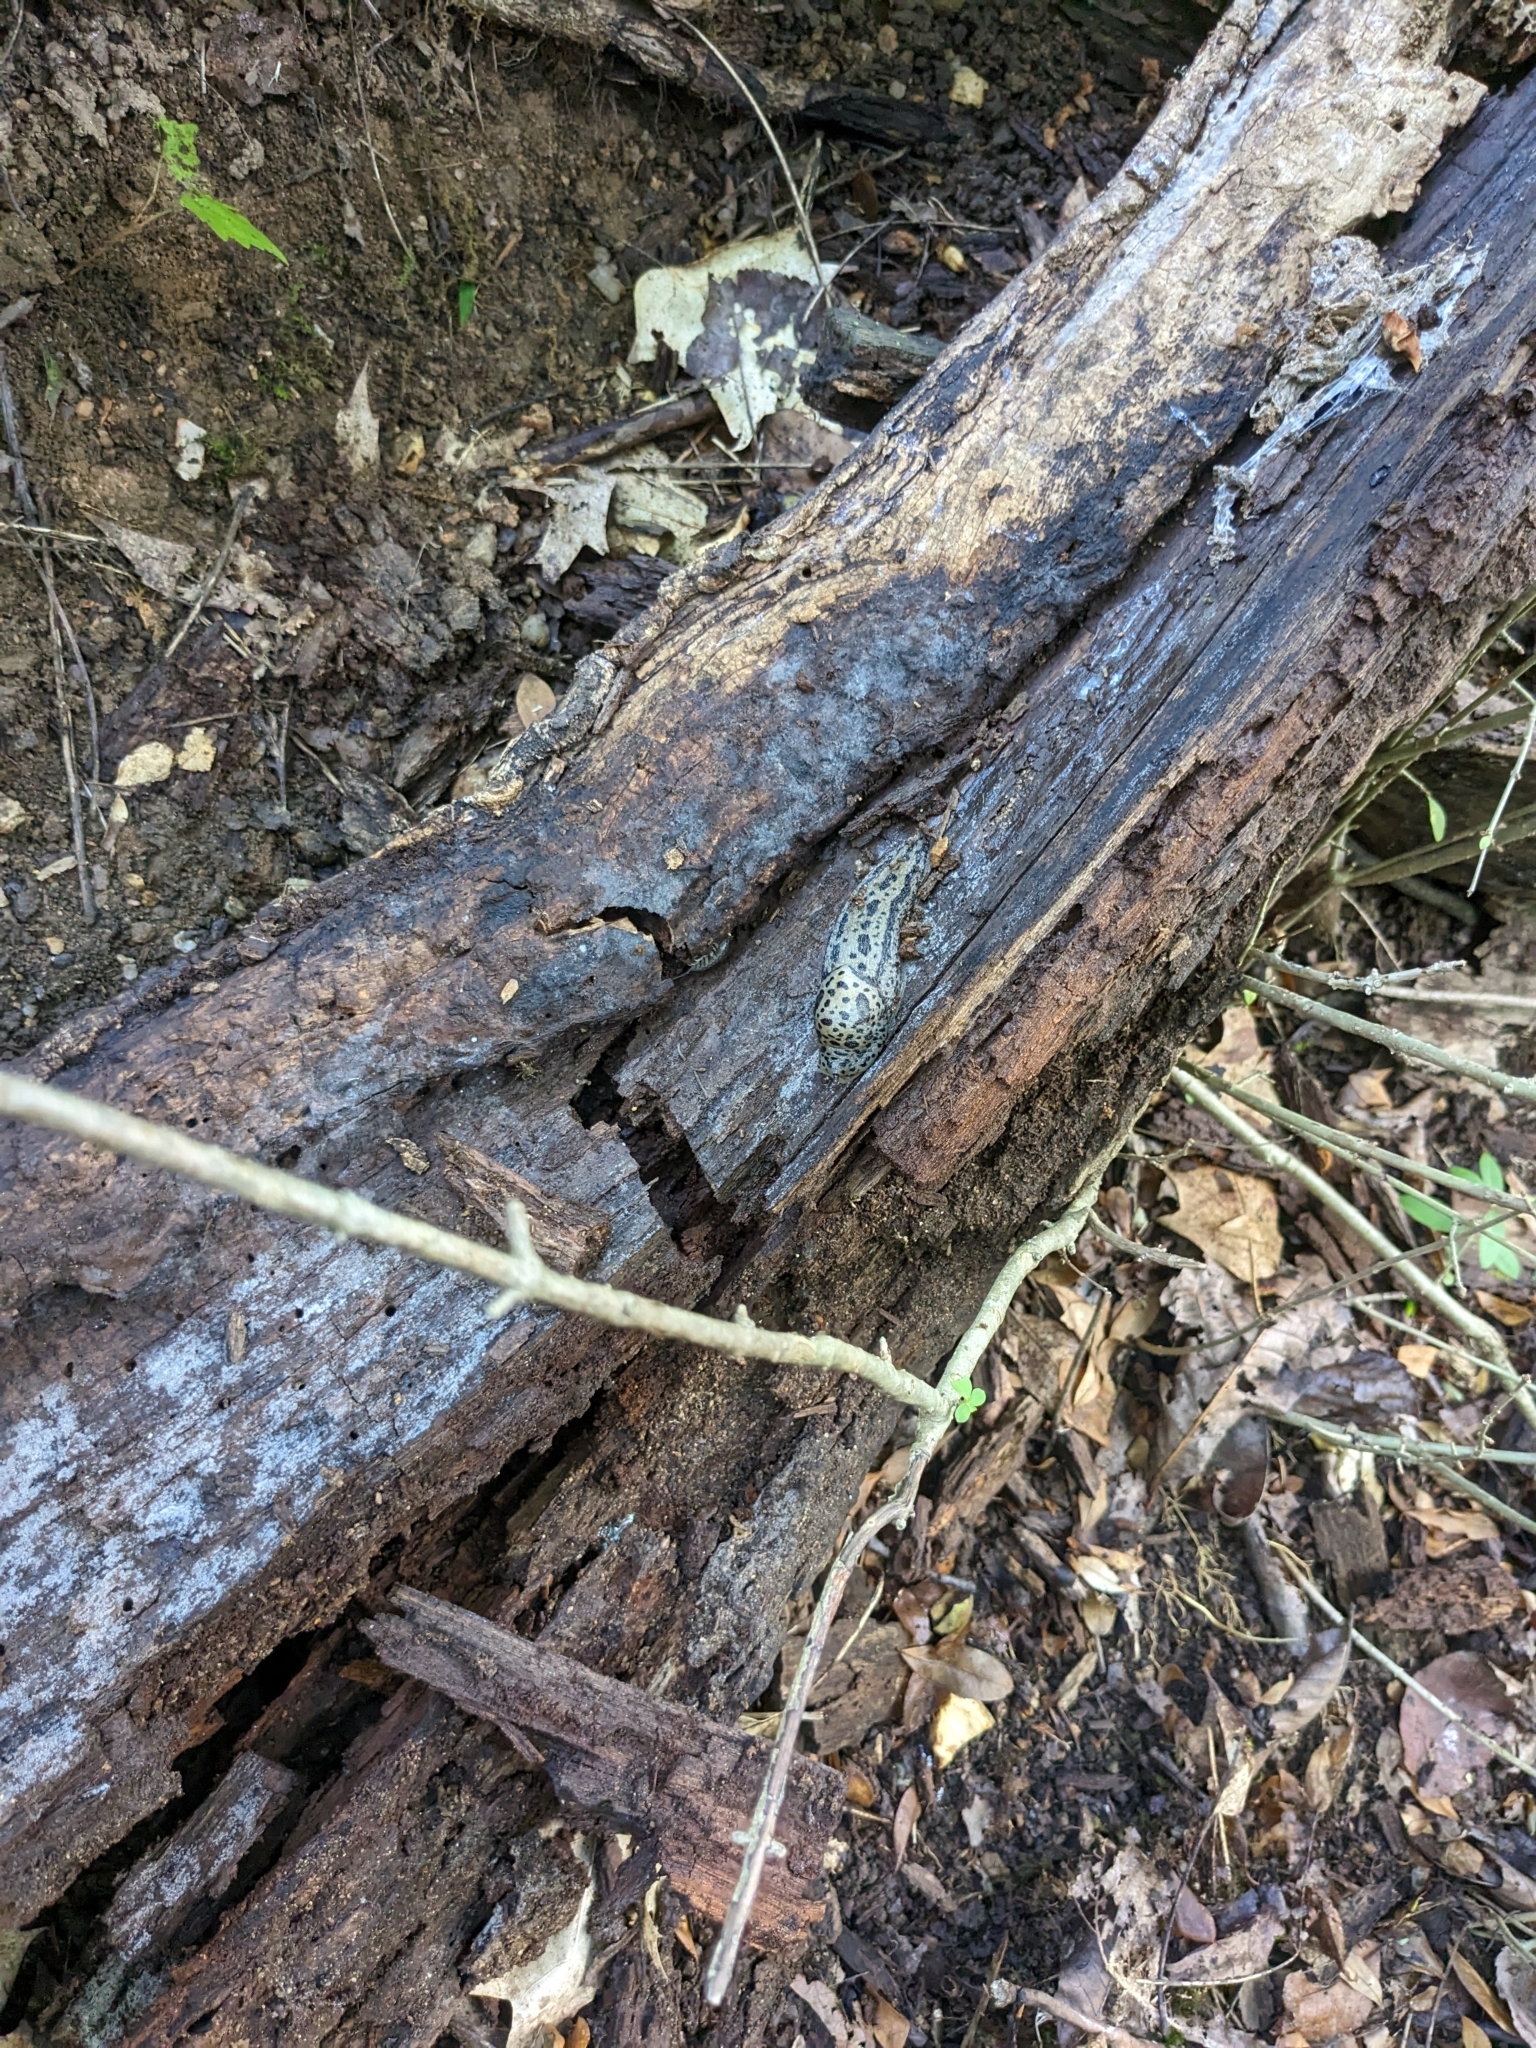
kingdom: Animalia
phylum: Mollusca
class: Gastropoda
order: Stylommatophora
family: Limacidae
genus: Limax
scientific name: Limax maximus
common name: Great grey slug
